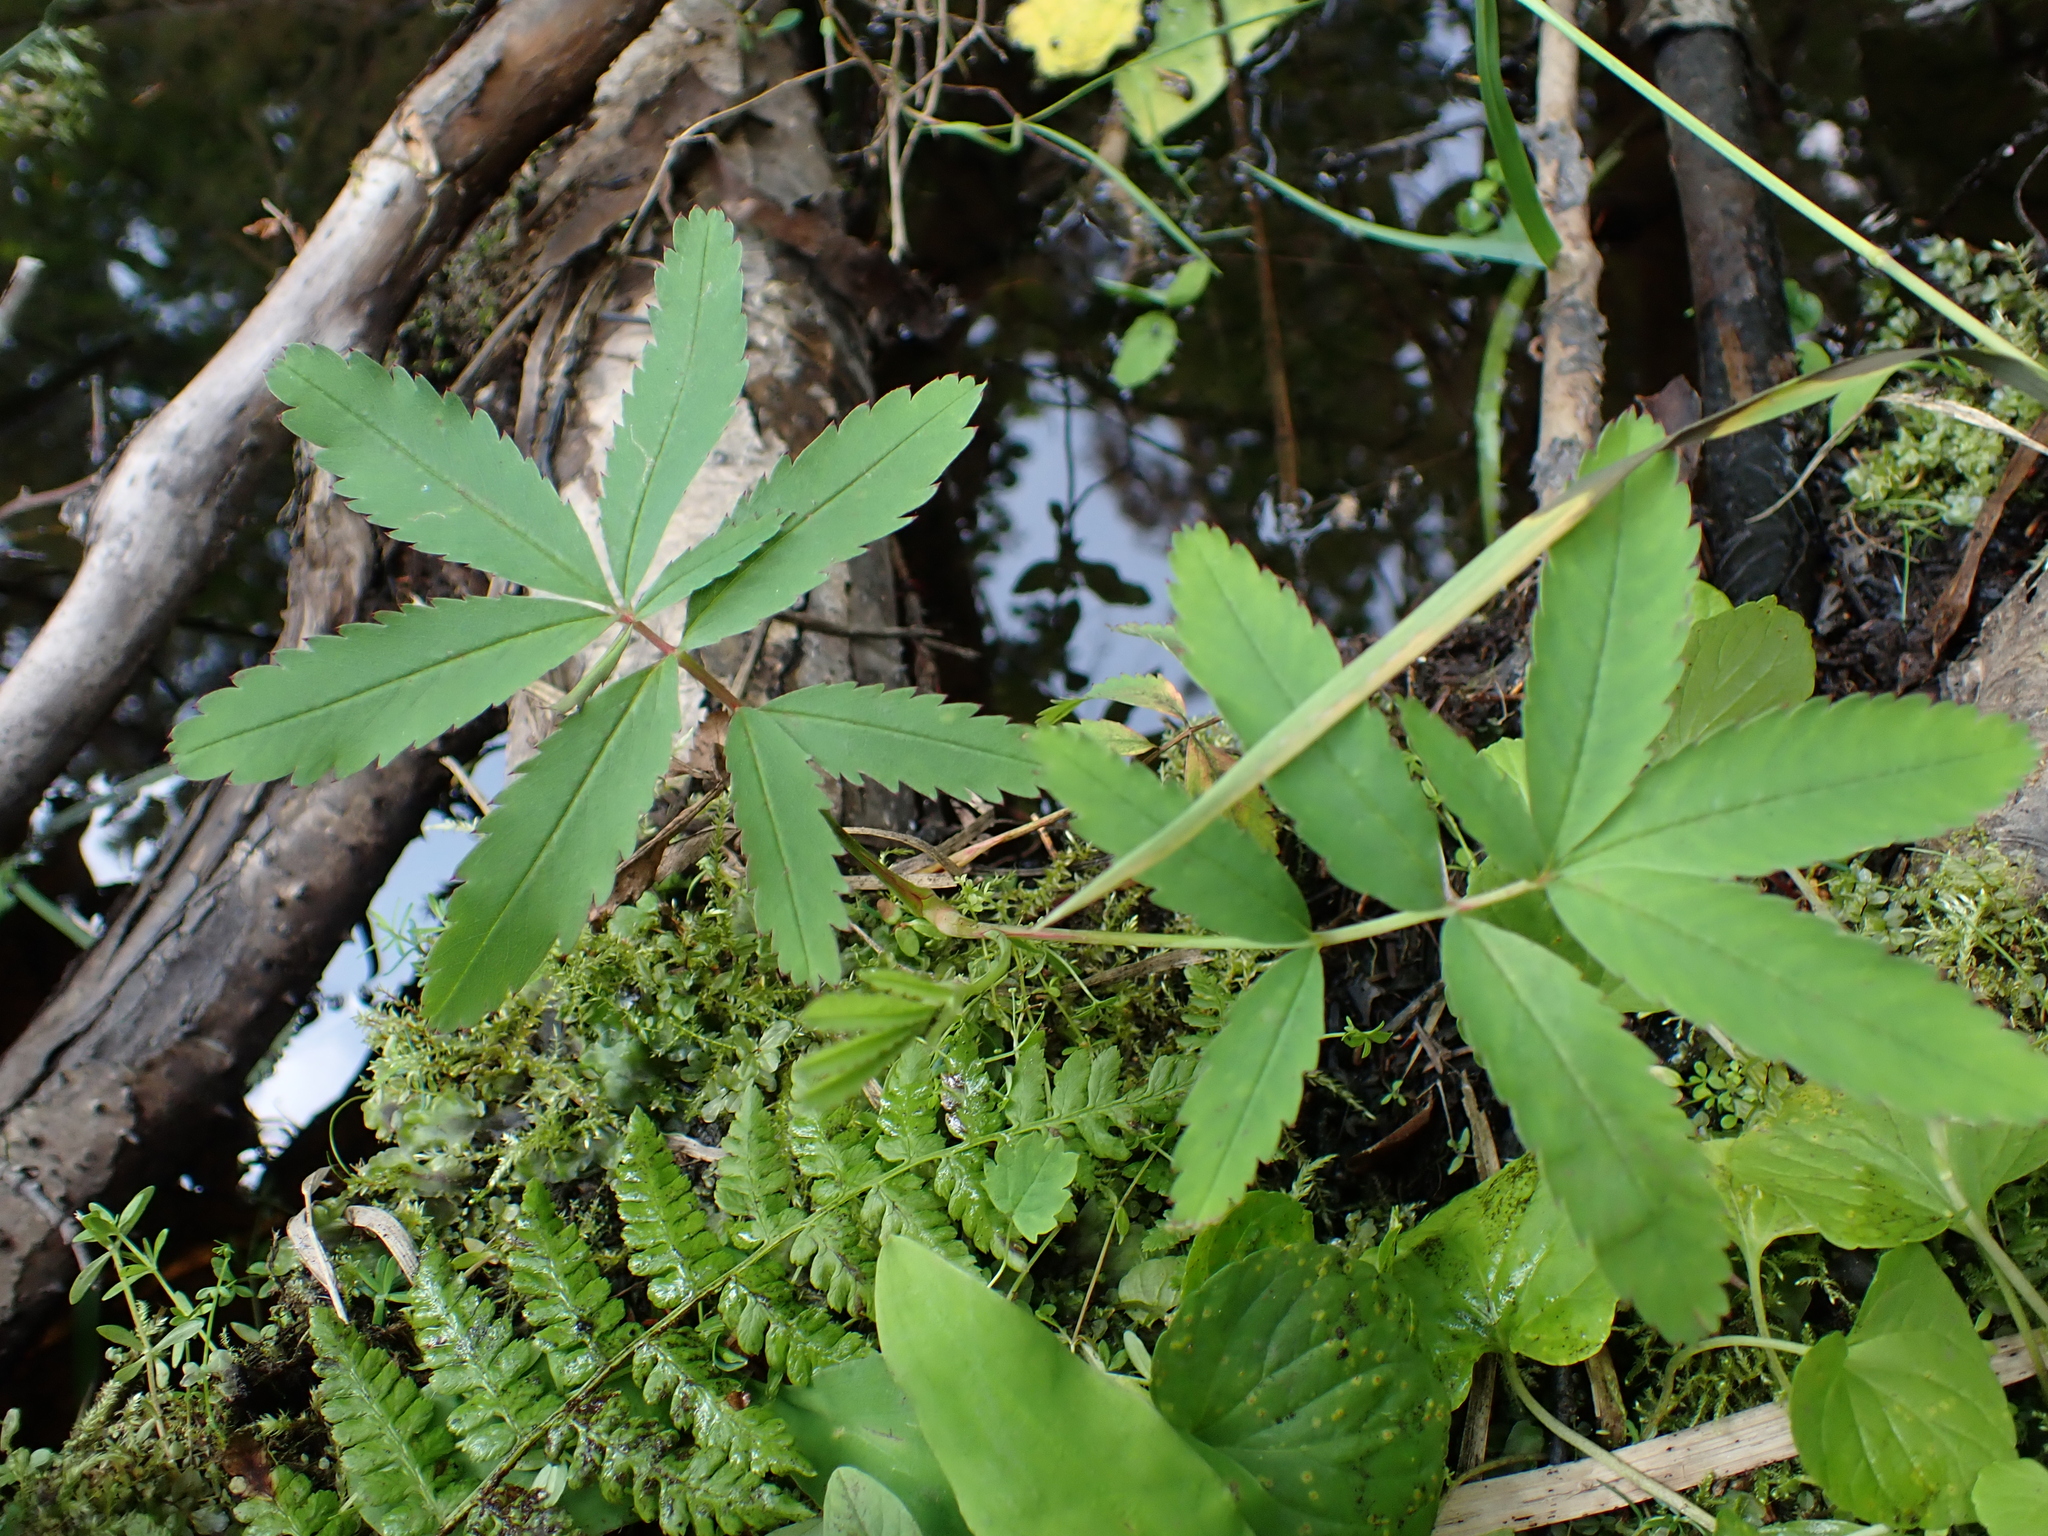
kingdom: Plantae
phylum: Tracheophyta
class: Magnoliopsida
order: Rosales
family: Rosaceae
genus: Comarum
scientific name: Comarum palustre
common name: Marsh cinquefoil
